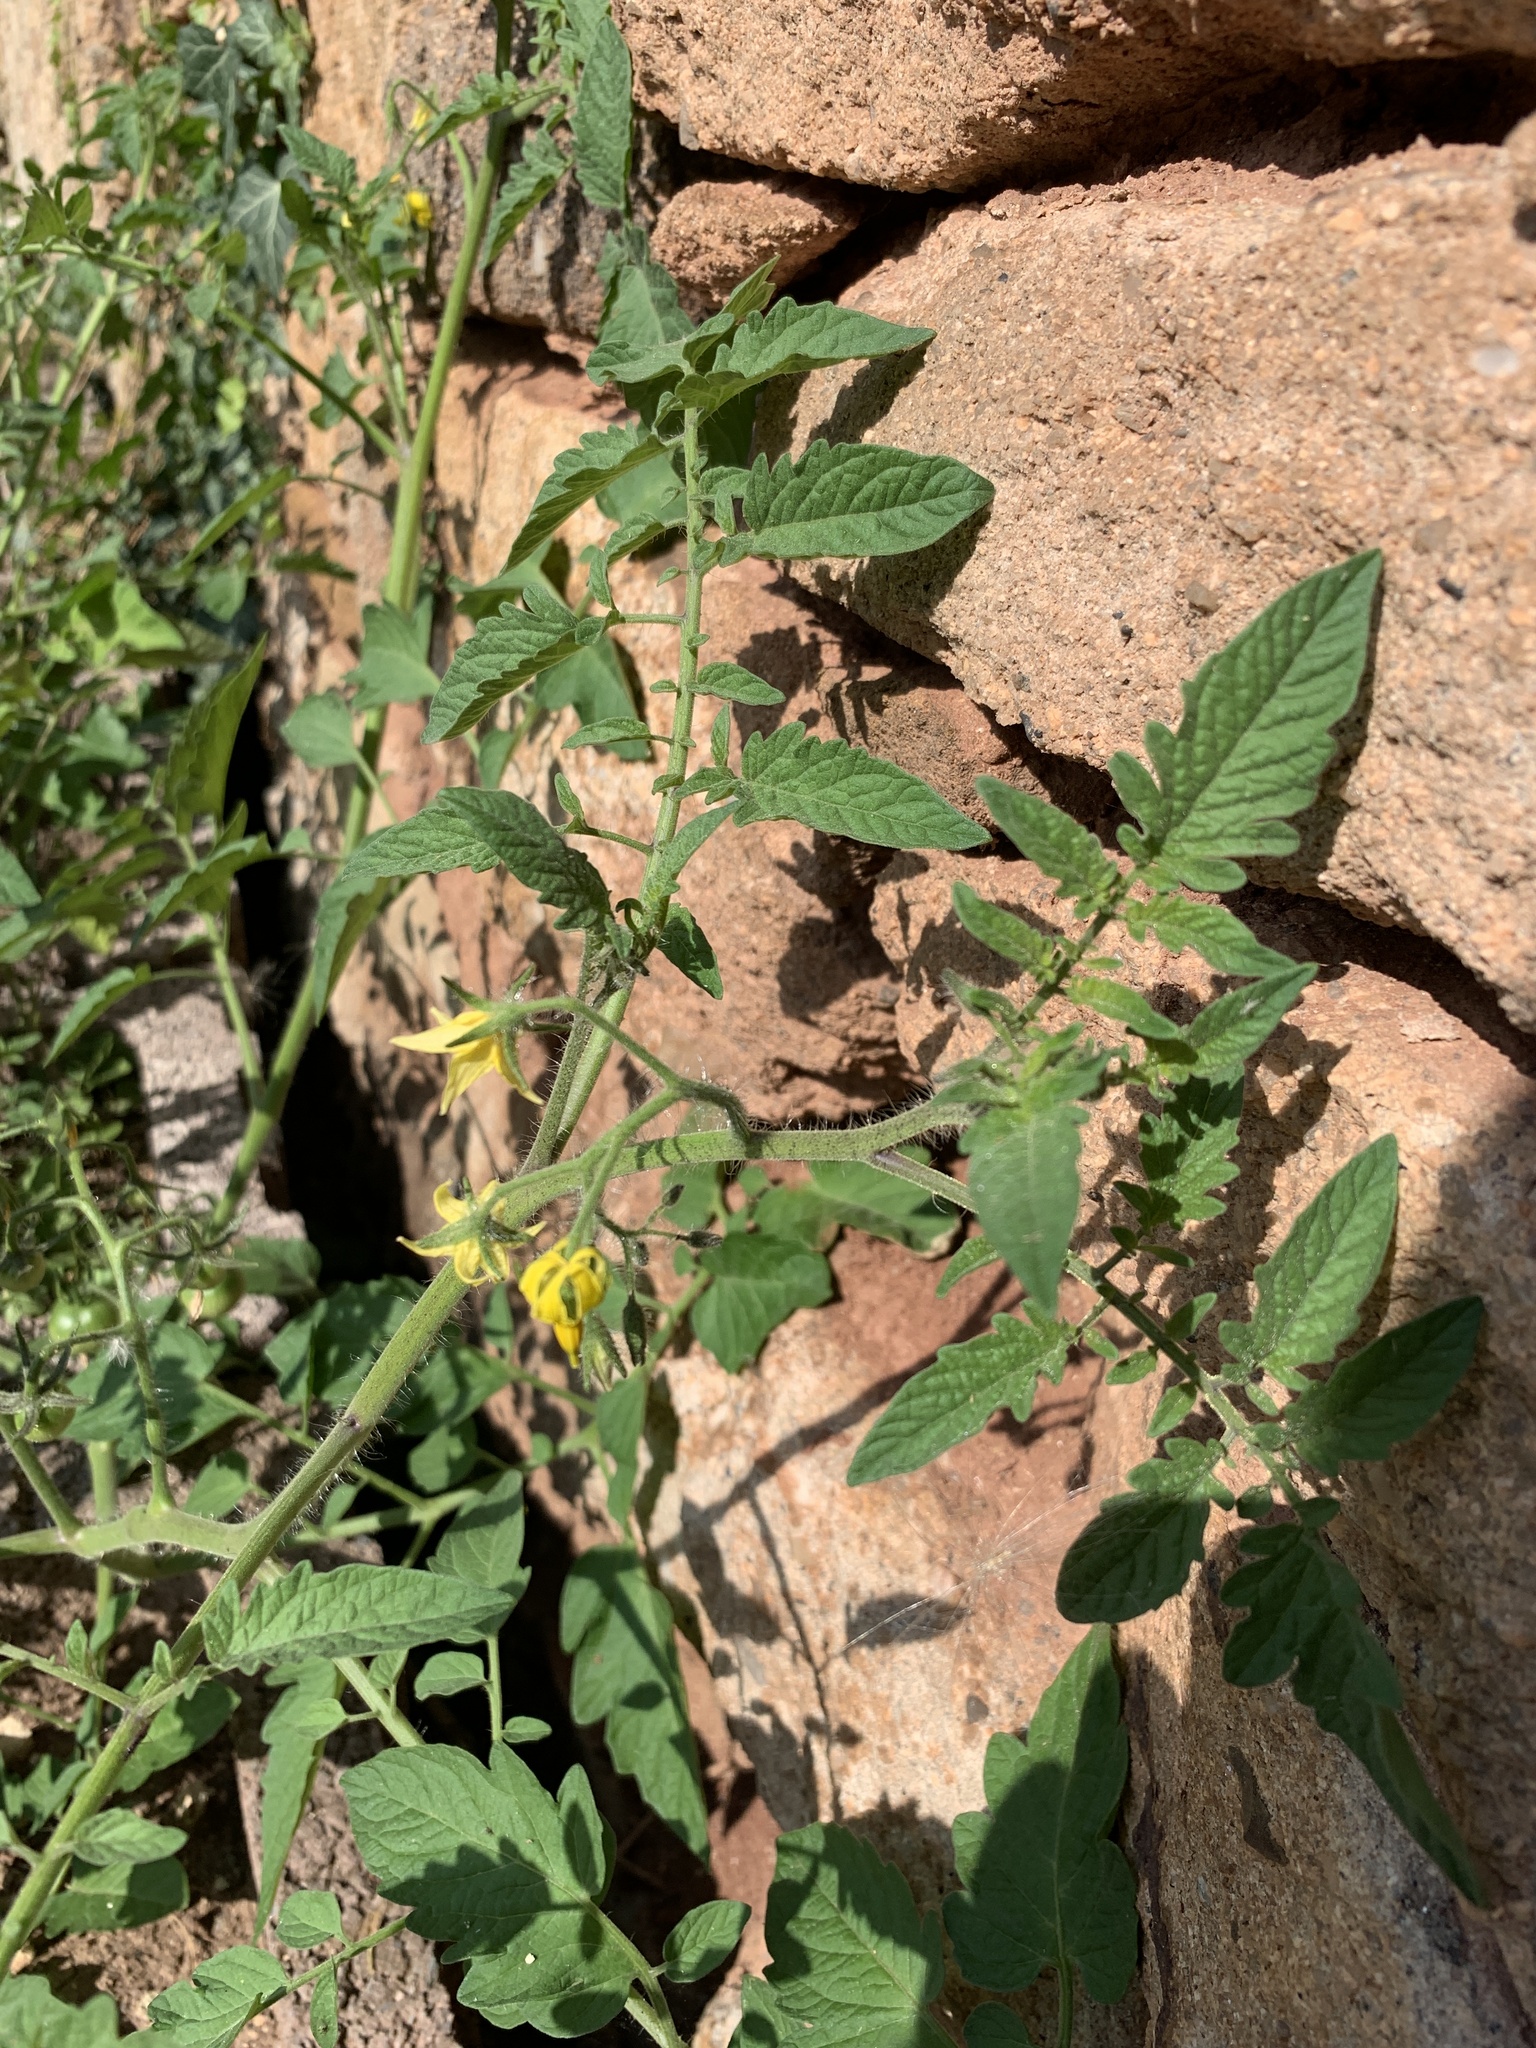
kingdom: Plantae
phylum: Tracheophyta
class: Magnoliopsida
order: Solanales
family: Solanaceae
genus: Solanum
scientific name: Solanum lycopersicum
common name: Garden tomato
